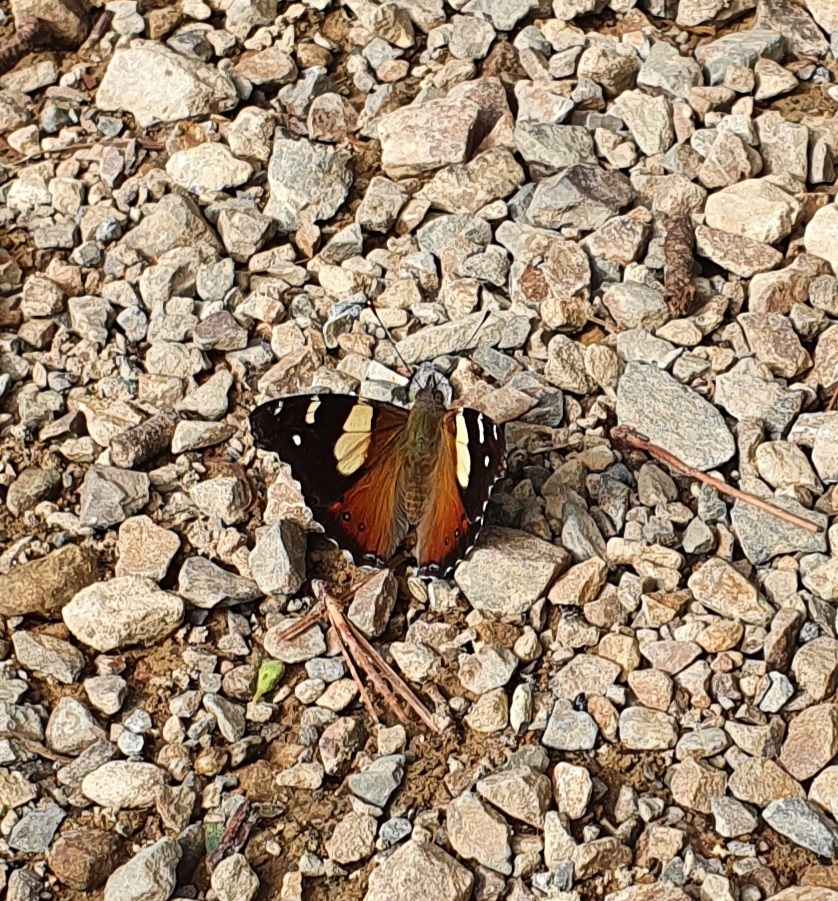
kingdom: Animalia
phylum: Arthropoda
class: Insecta
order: Lepidoptera
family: Nymphalidae
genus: Vanessa
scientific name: Vanessa itea
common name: Yellow admiral
